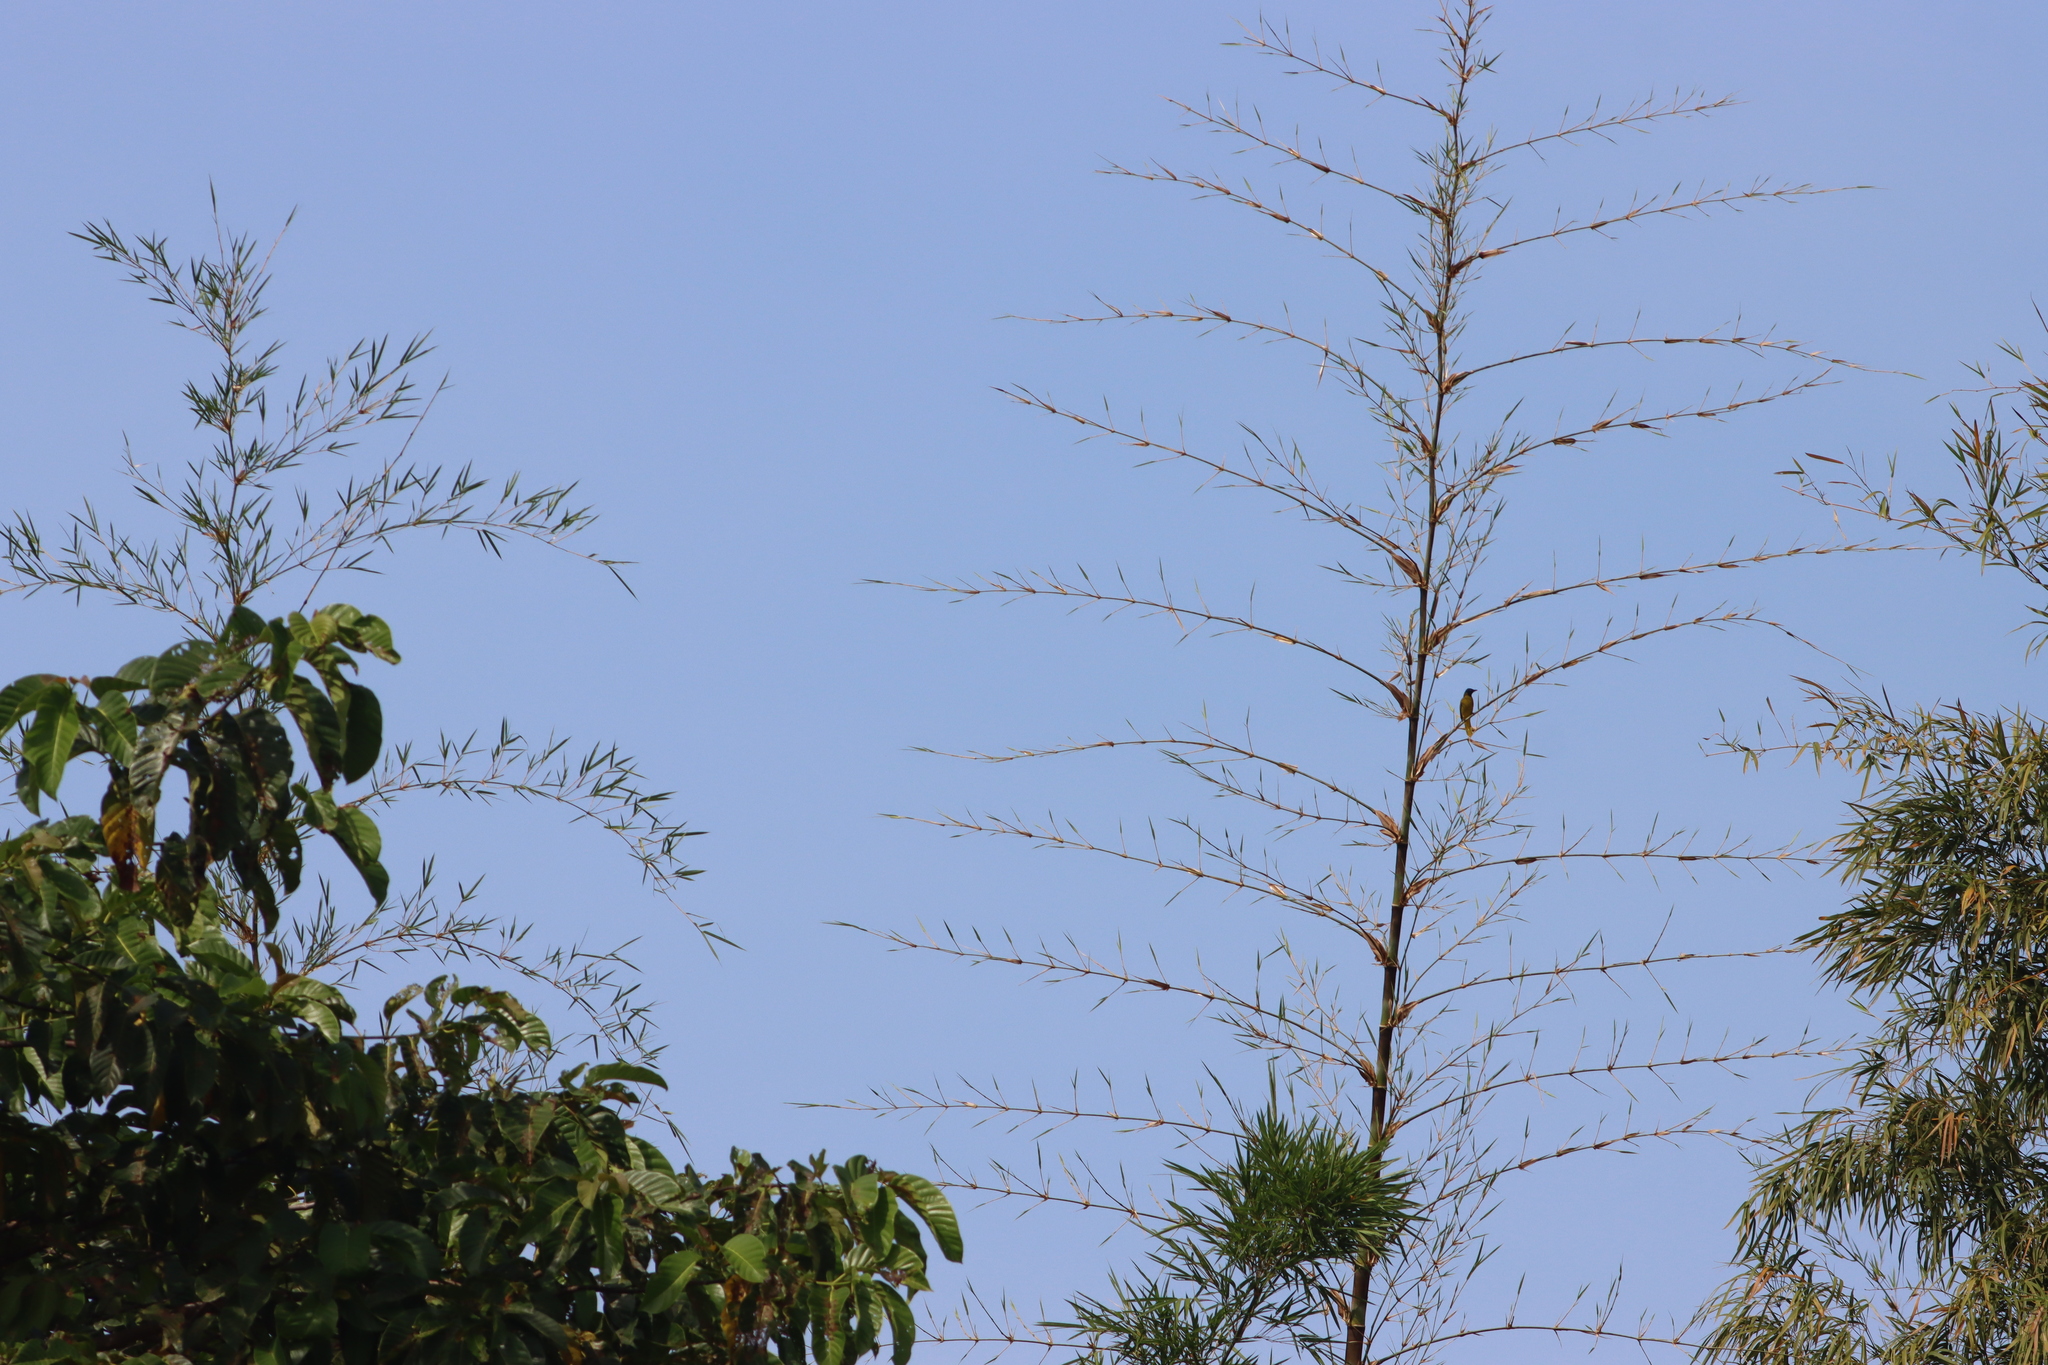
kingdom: Animalia
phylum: Chordata
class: Aves
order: Passeriformes
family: Pycnonotidae
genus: Microtarsus
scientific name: Microtarsus
